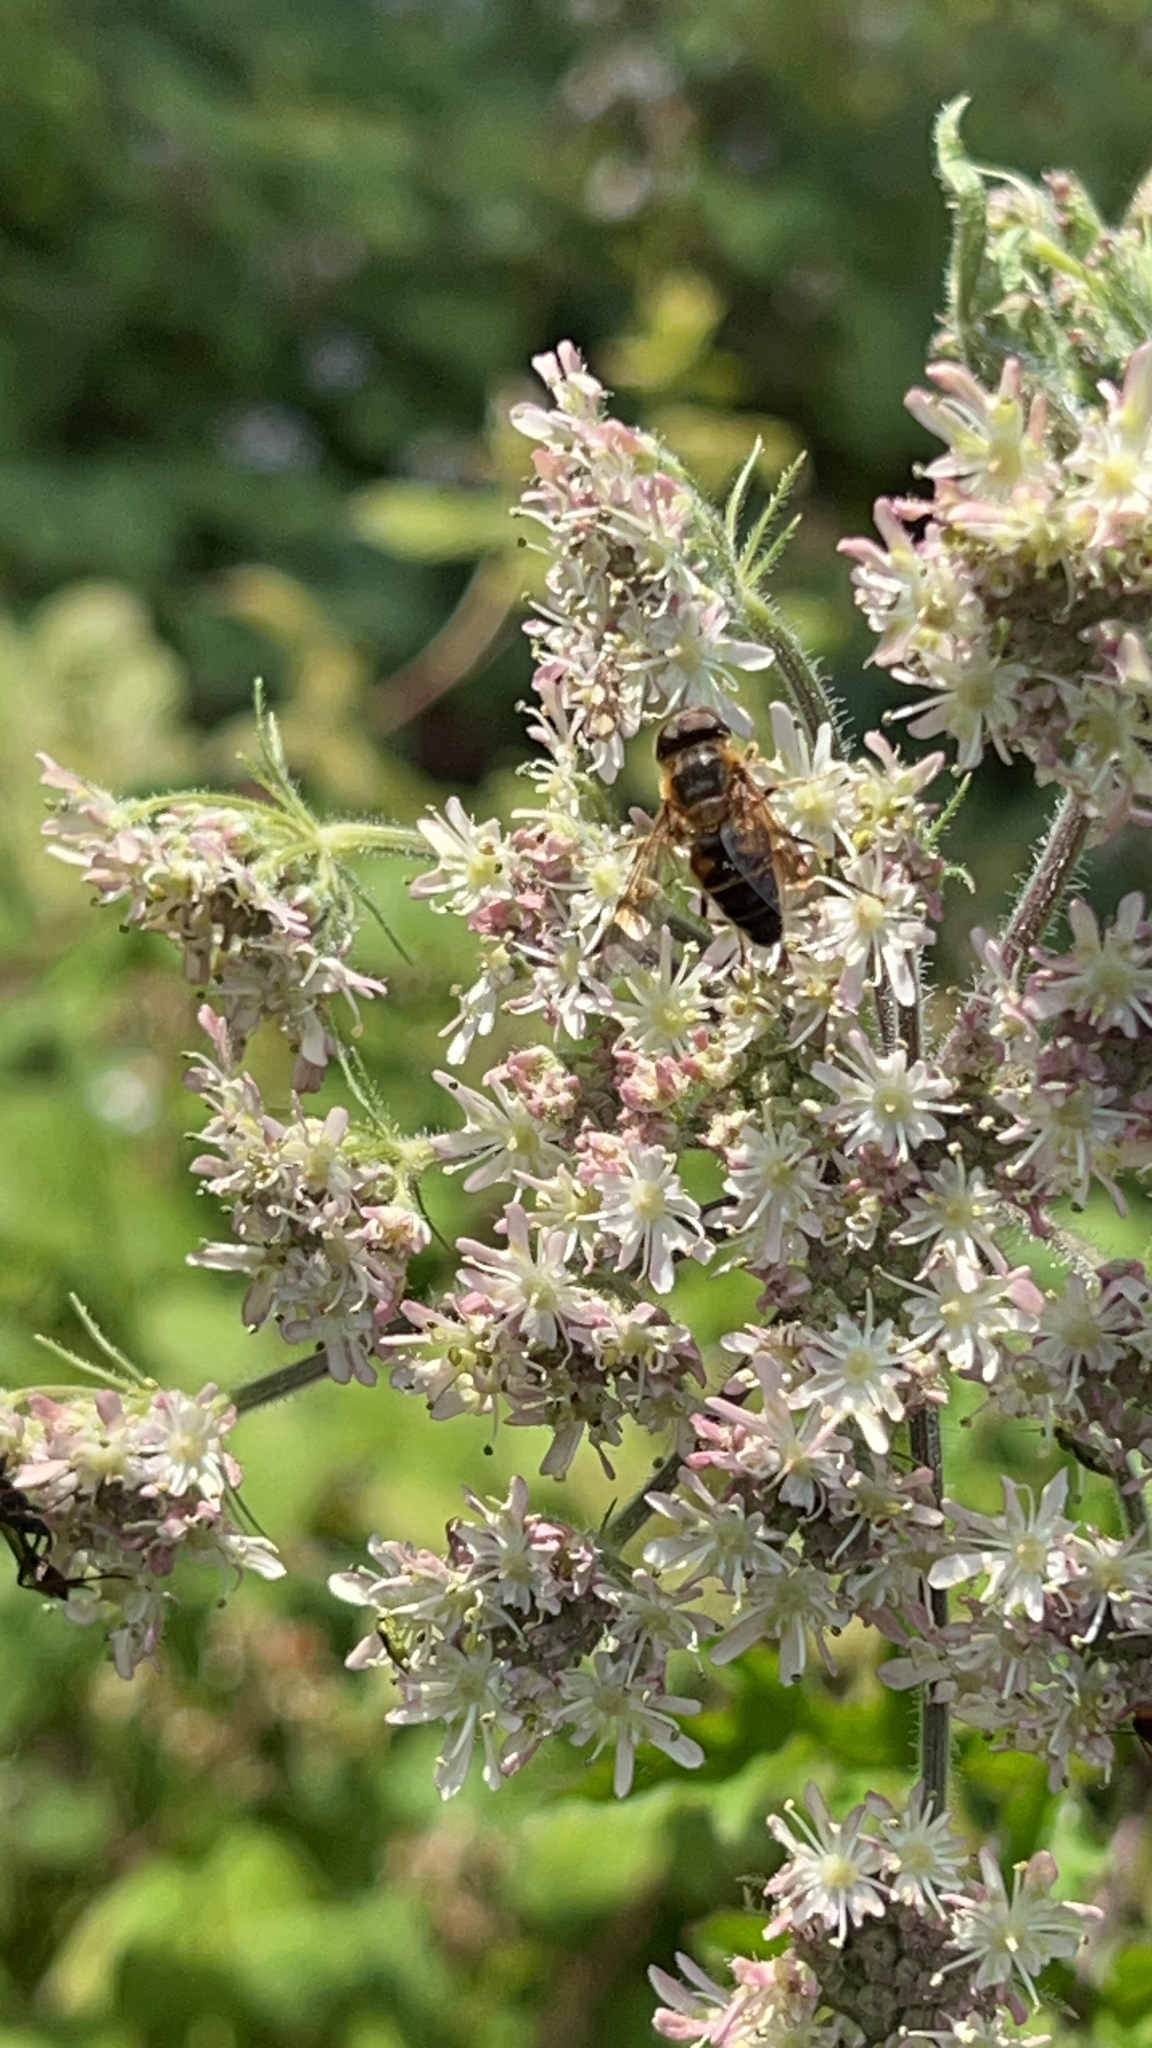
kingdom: Animalia
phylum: Arthropoda
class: Insecta
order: Diptera
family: Syrphidae
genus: Eristalis
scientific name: Eristalis pertinax
